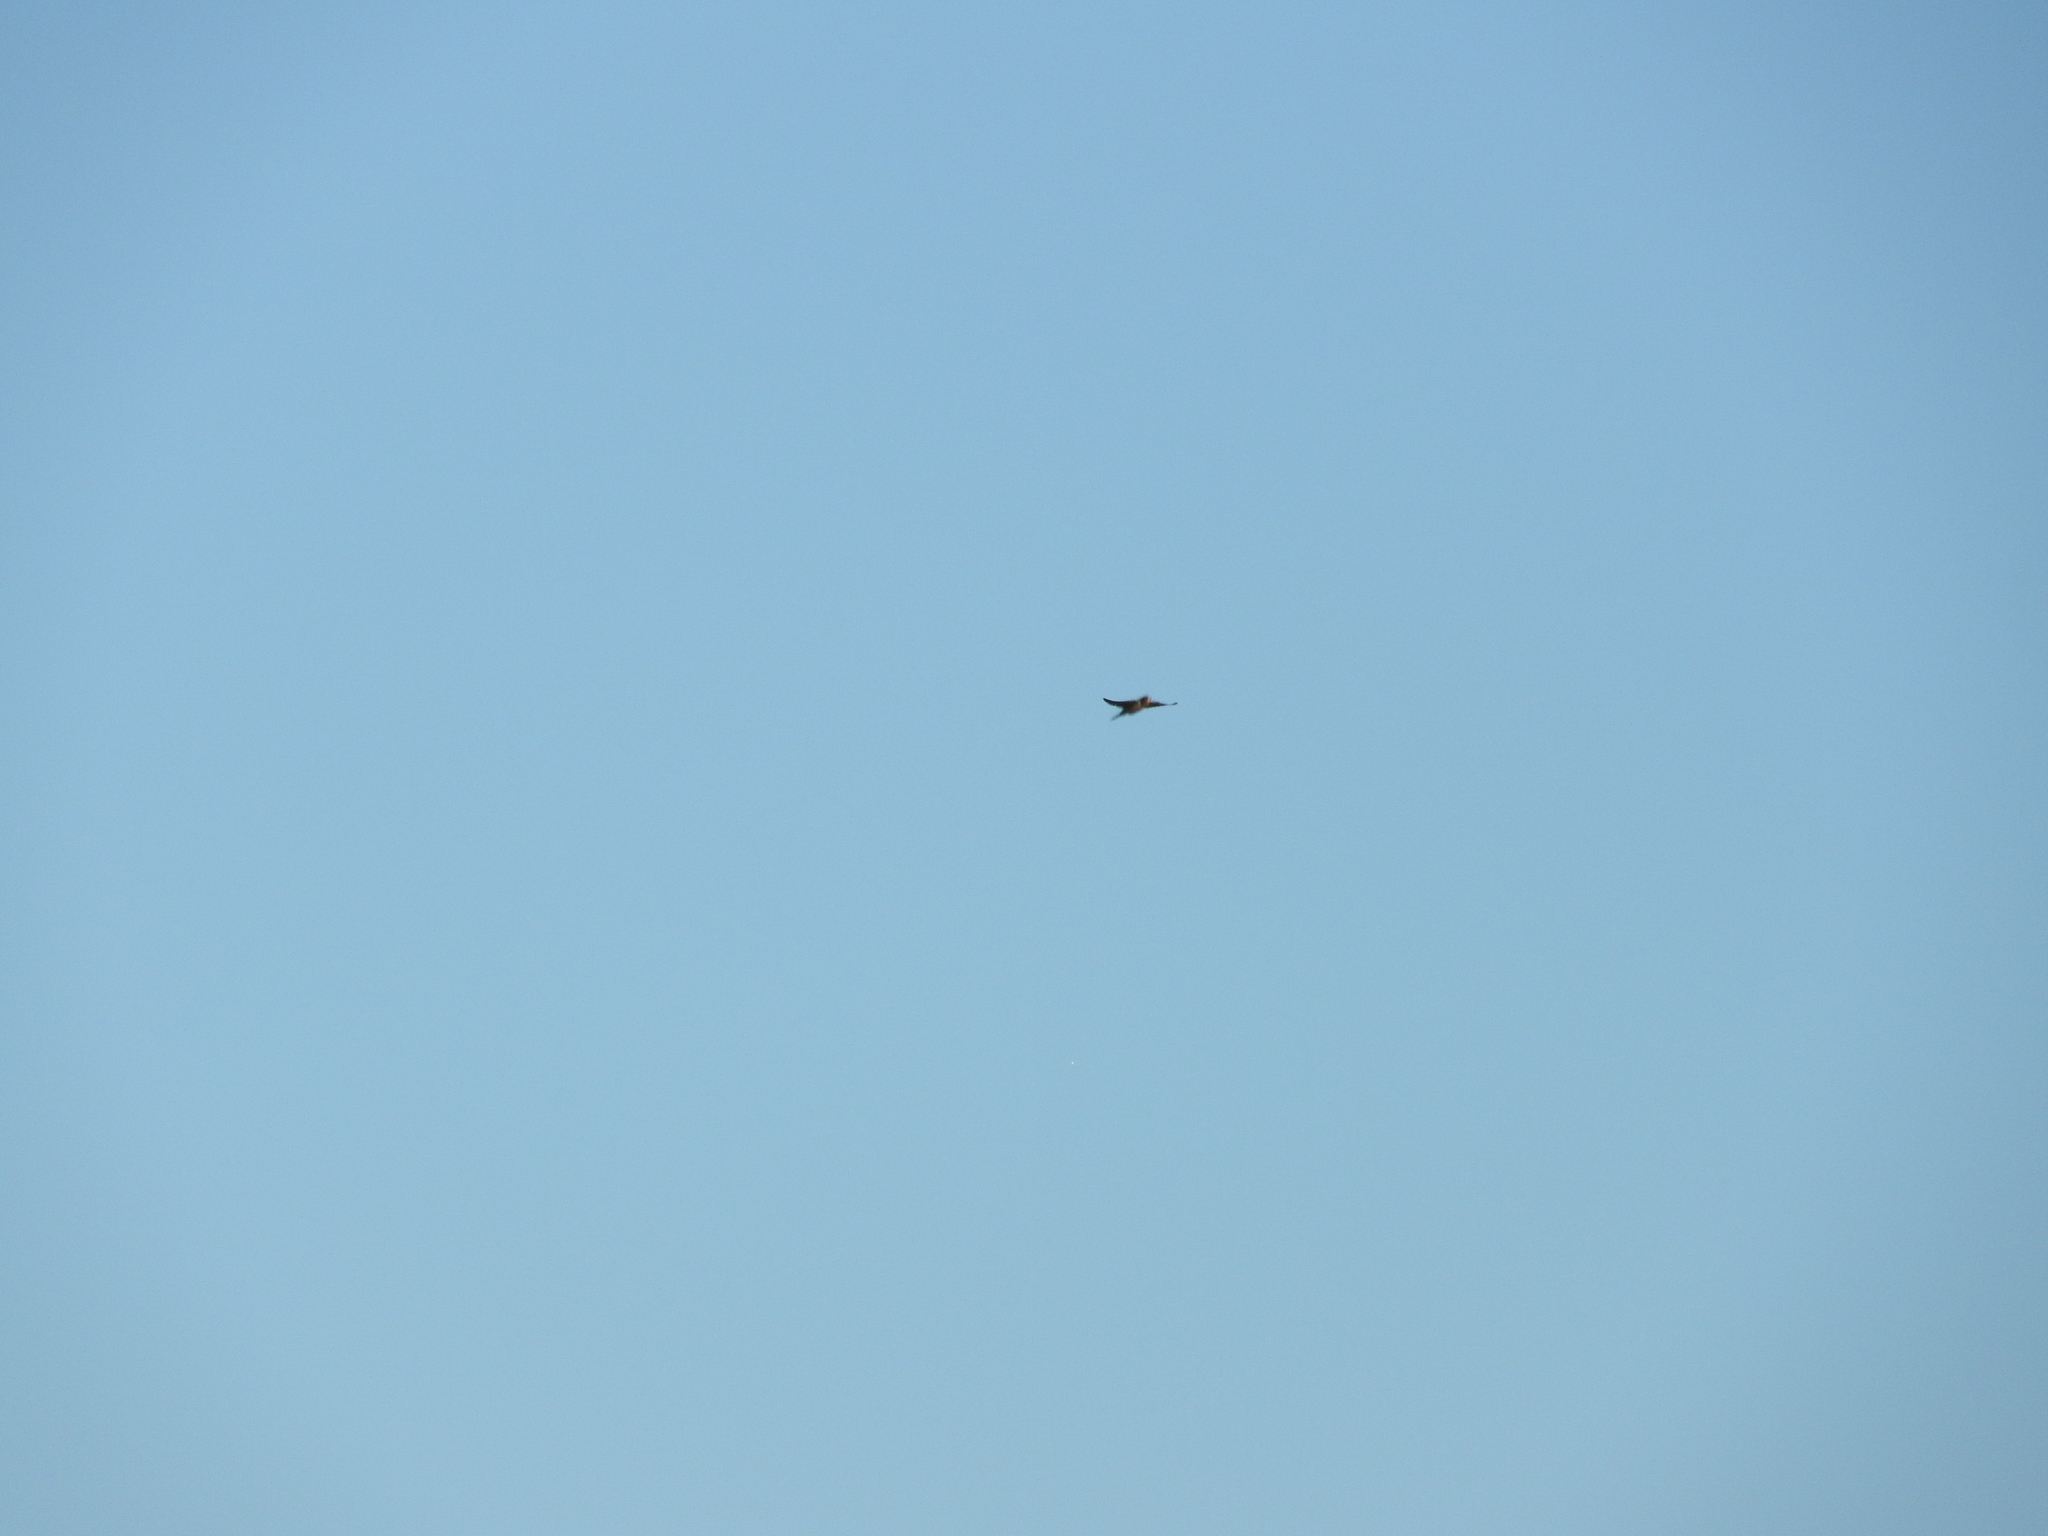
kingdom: Animalia
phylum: Chordata
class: Aves
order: Passeriformes
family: Hirundinidae
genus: Hirundo
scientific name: Hirundo rustica
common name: Barn swallow
